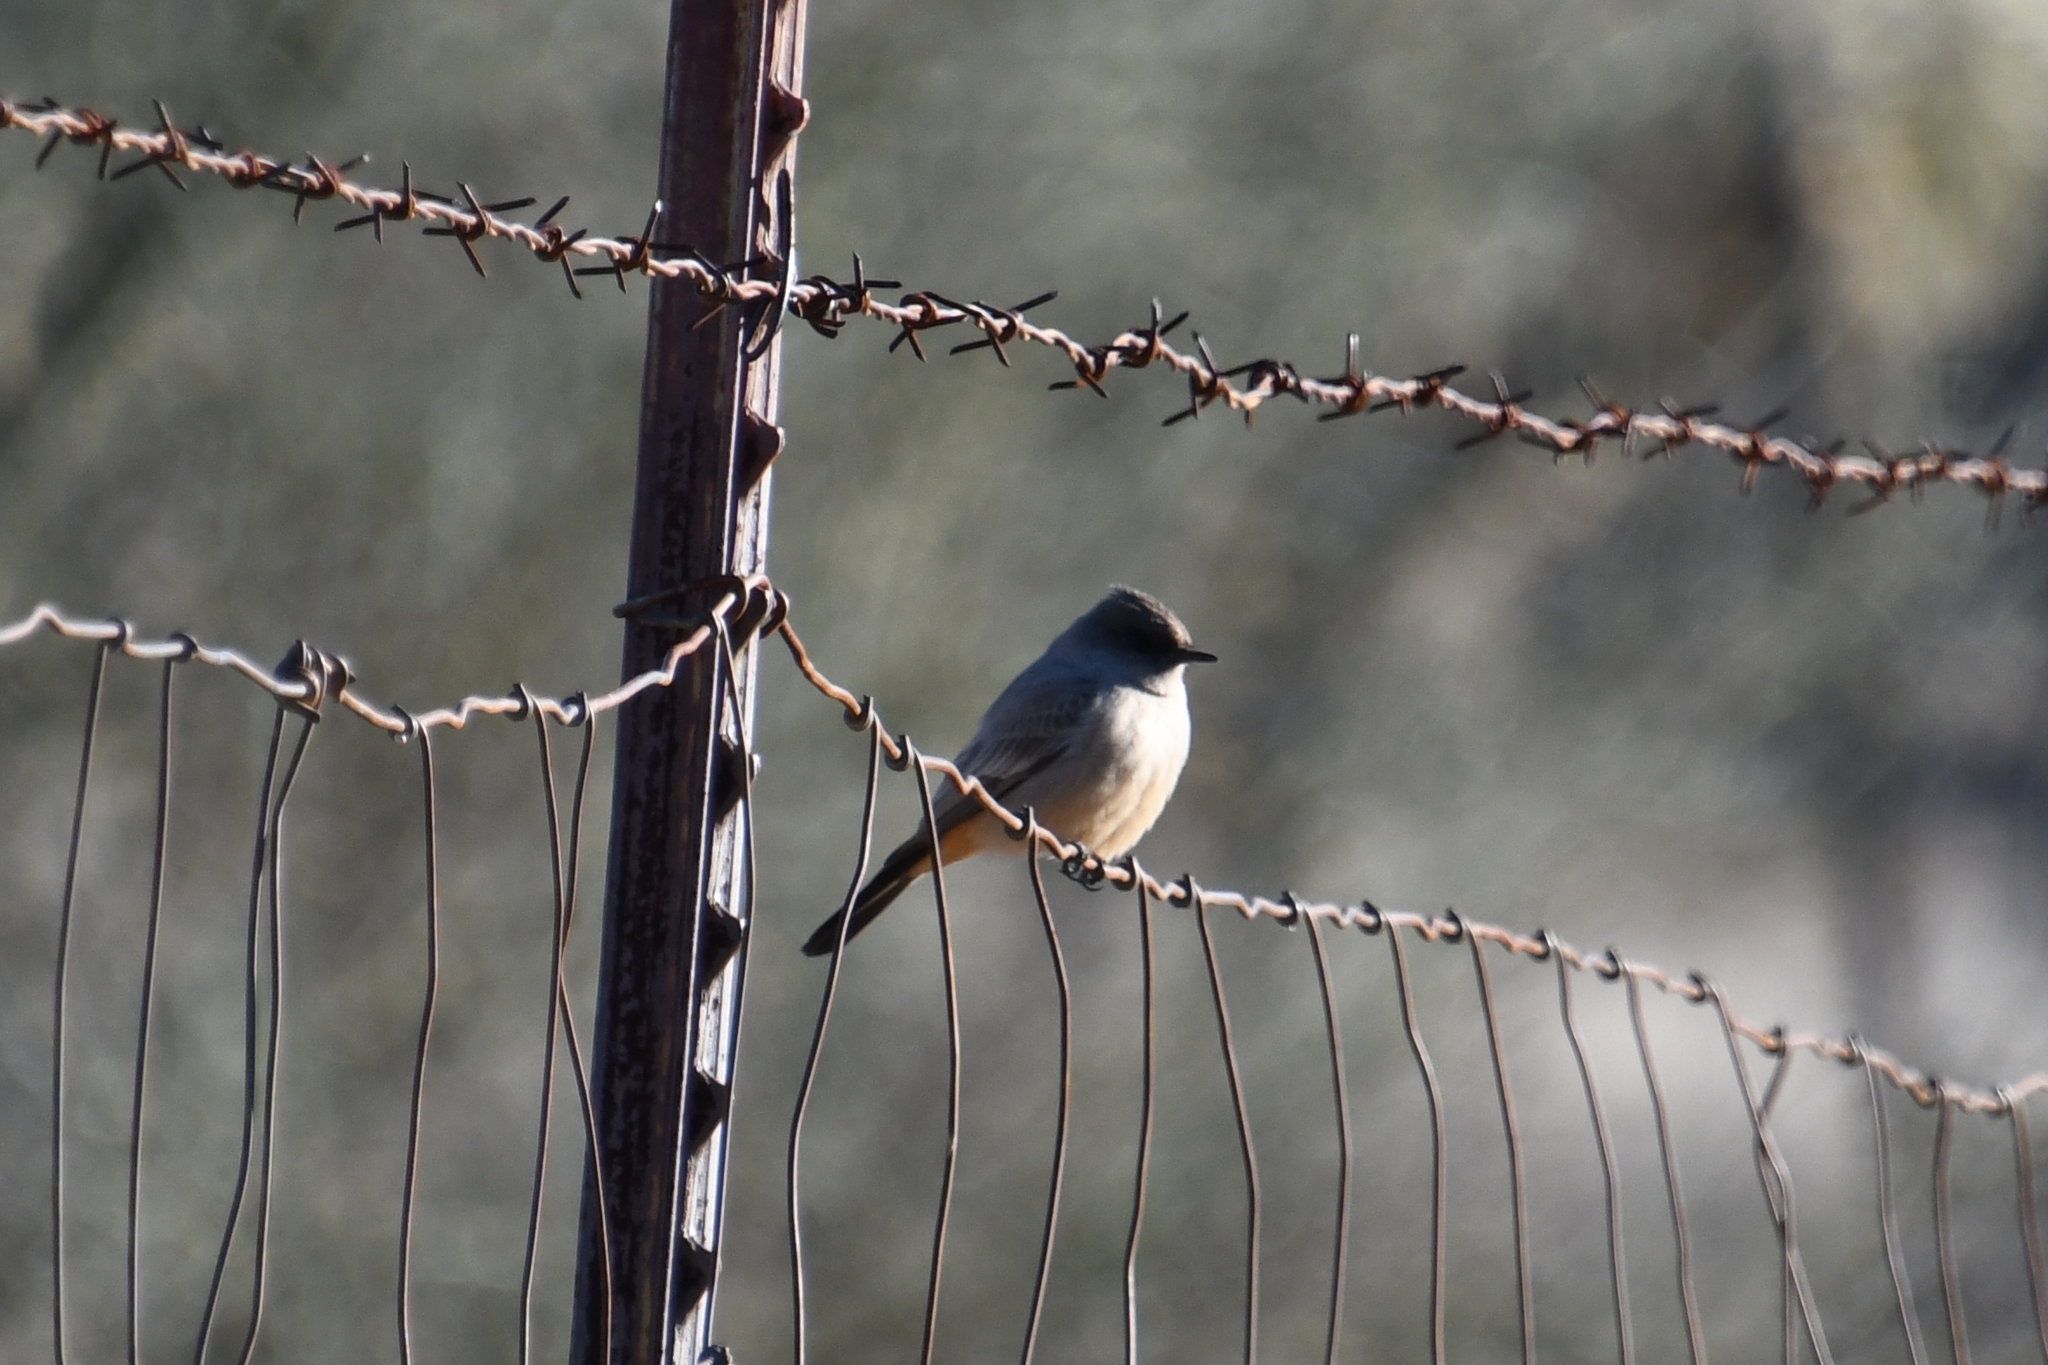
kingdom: Animalia
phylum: Chordata
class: Aves
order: Passeriformes
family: Tyrannidae
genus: Sayornis
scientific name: Sayornis saya
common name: Say's phoebe
